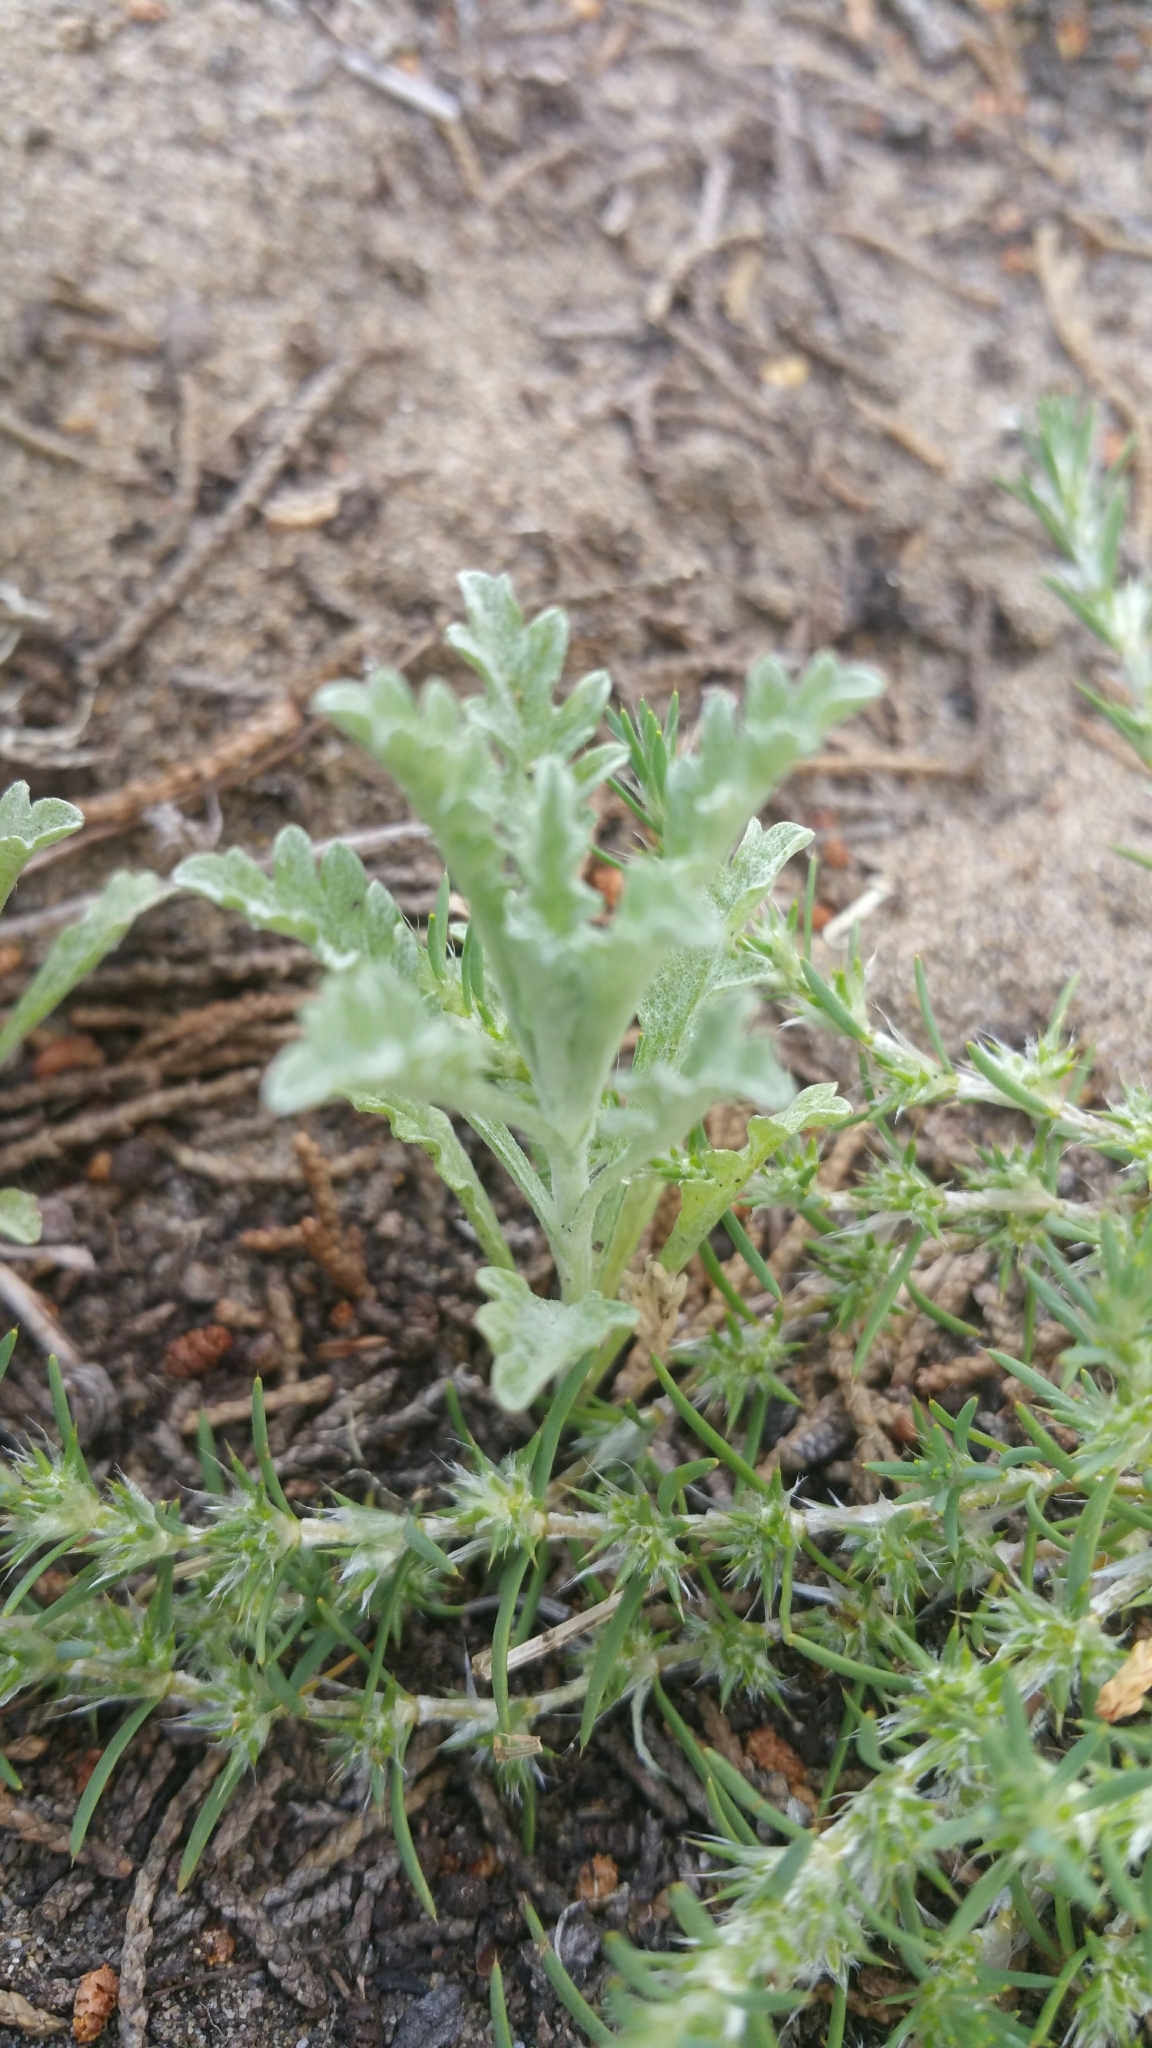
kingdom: Plantae
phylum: Tracheophyta
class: Magnoliopsida
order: Asterales
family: Asteraceae
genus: Lessingia
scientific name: Lessingia germanorum
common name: San francisco lessingia
